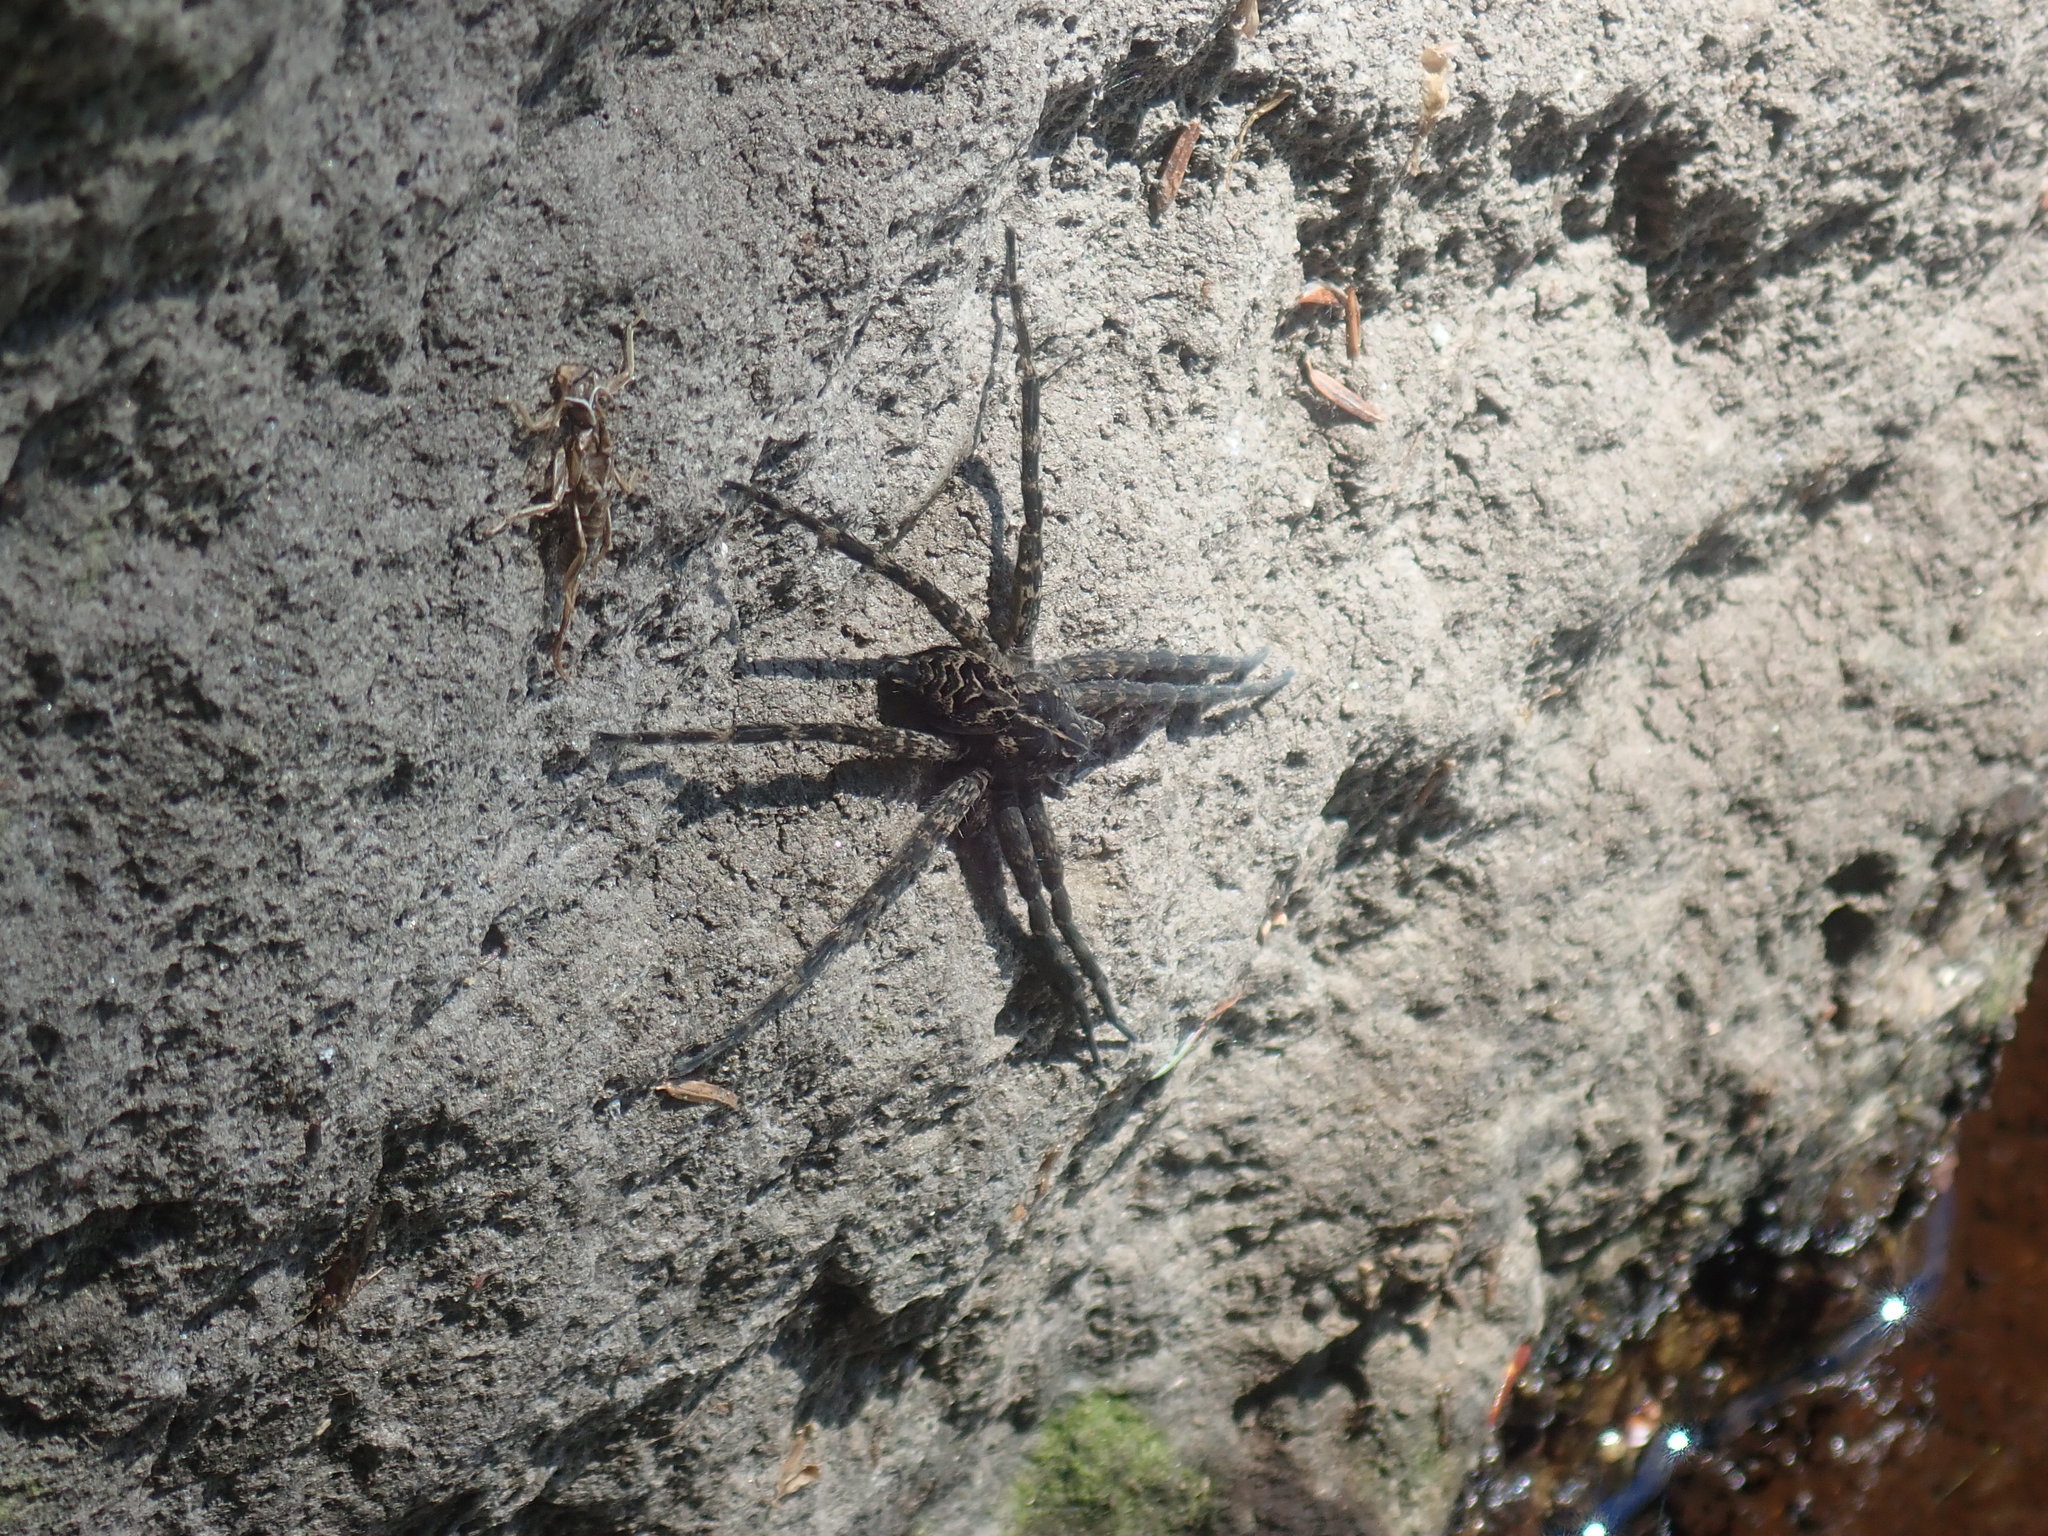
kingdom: Animalia
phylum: Arthropoda
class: Arachnida
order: Araneae
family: Pisauridae
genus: Dolomedes
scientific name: Dolomedes scriptus
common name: Striped fishing spider
